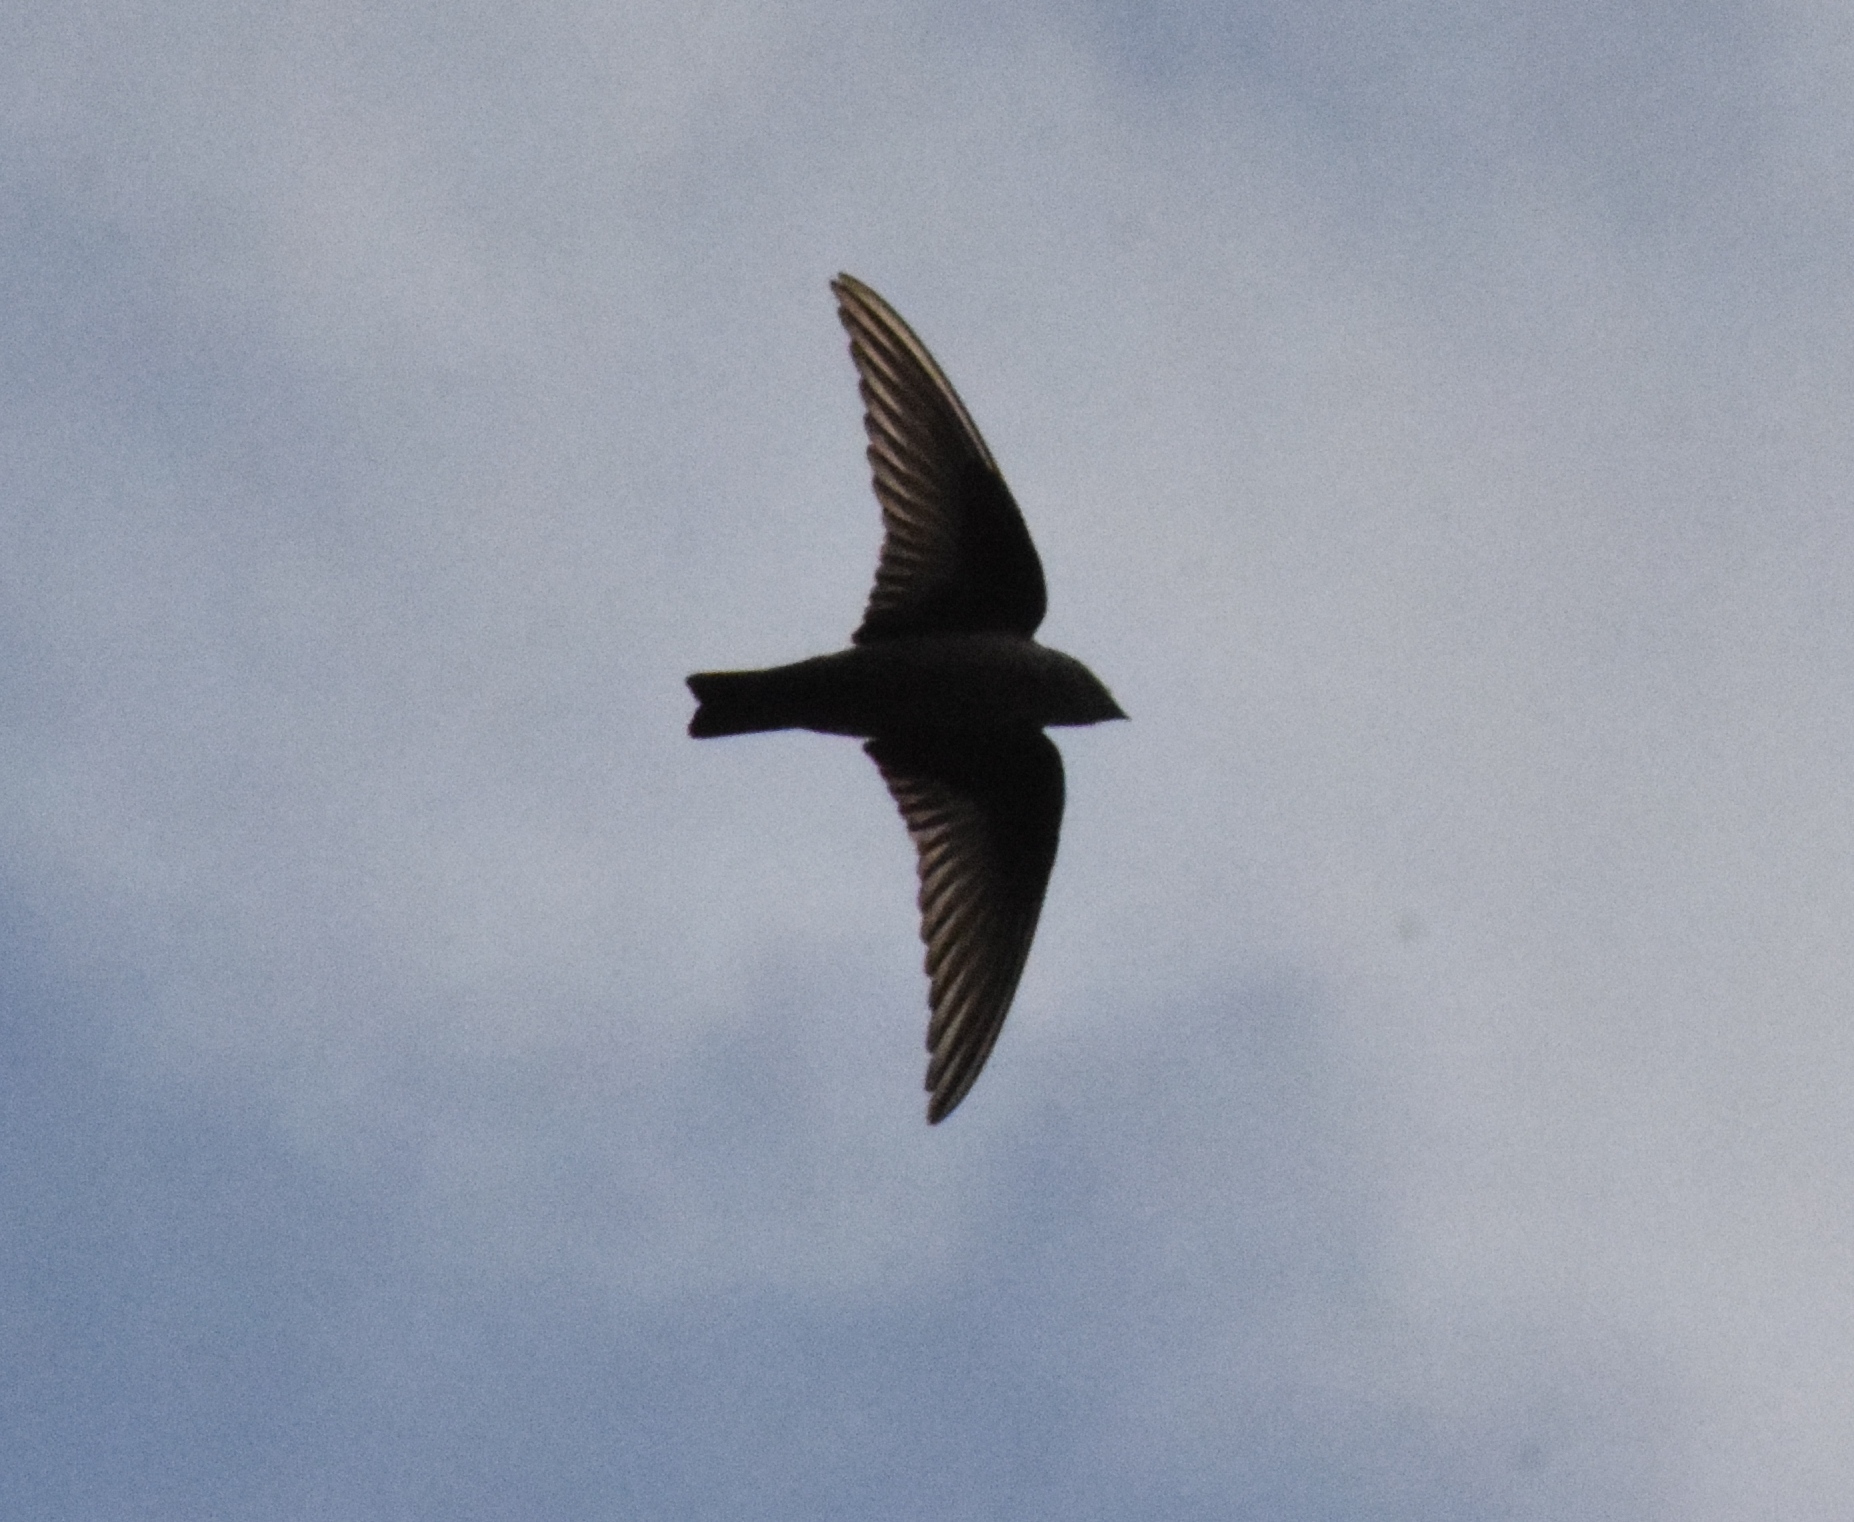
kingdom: Animalia
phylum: Chordata
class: Aves
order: Passeriformes
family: Hirundinidae
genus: Ptyonoprogne
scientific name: Ptyonoprogne rupestris
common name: Eurasian crag martin
